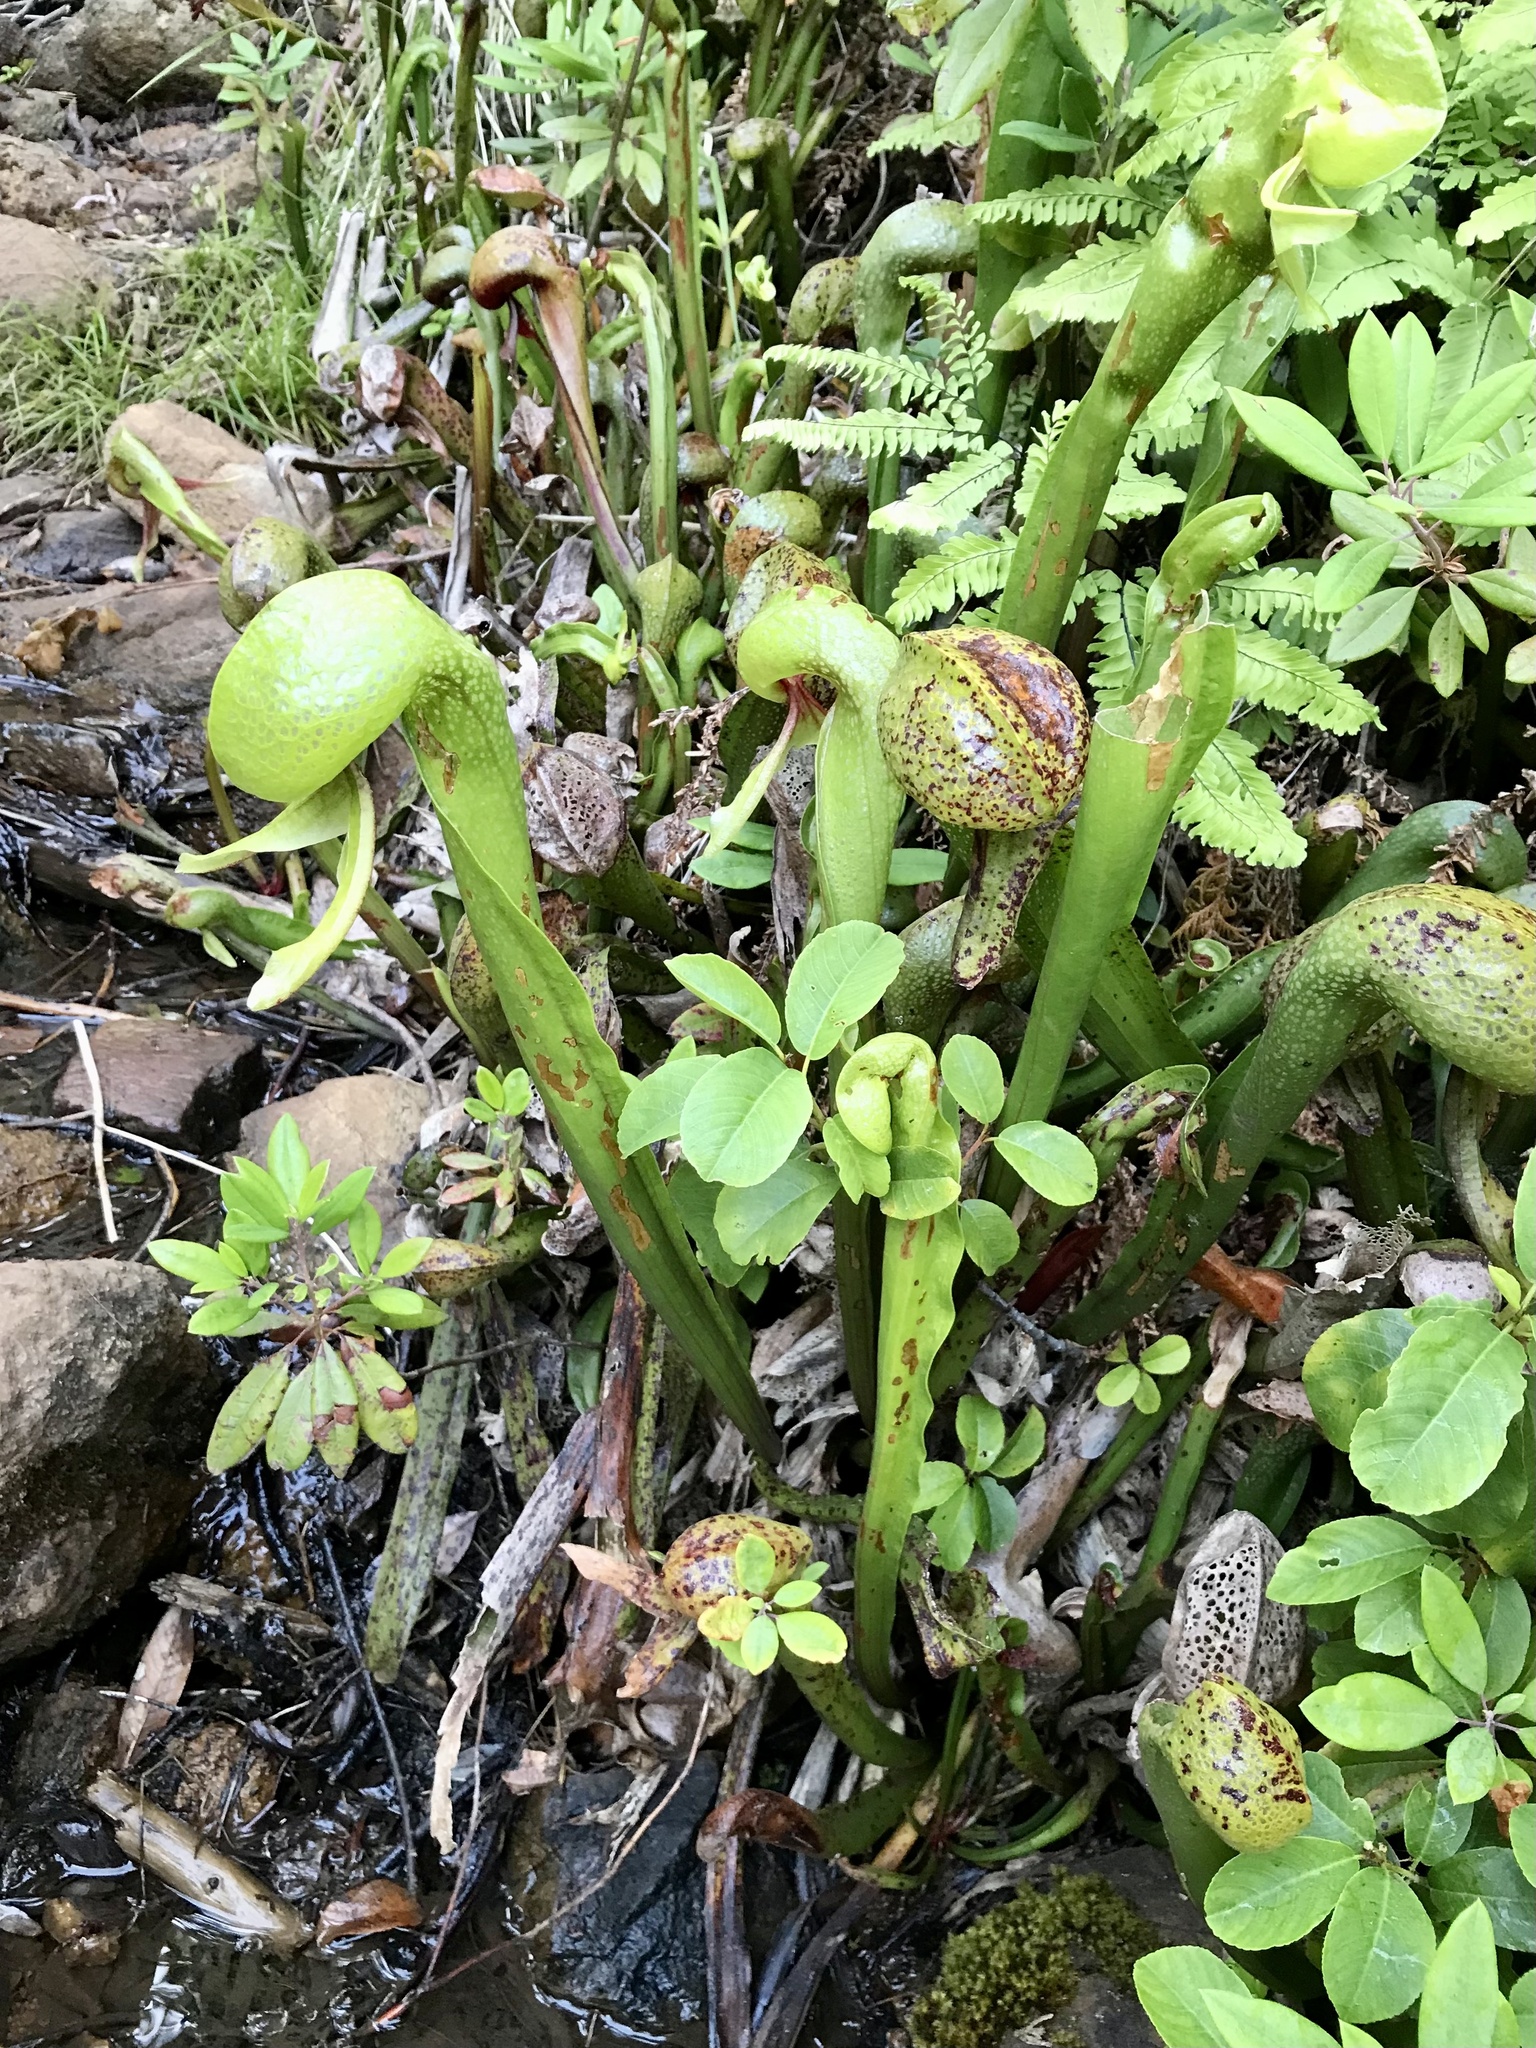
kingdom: Plantae
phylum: Tracheophyta
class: Magnoliopsida
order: Ericales
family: Sarraceniaceae
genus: Darlingtonia
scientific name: Darlingtonia californica
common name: California pitcher plant
